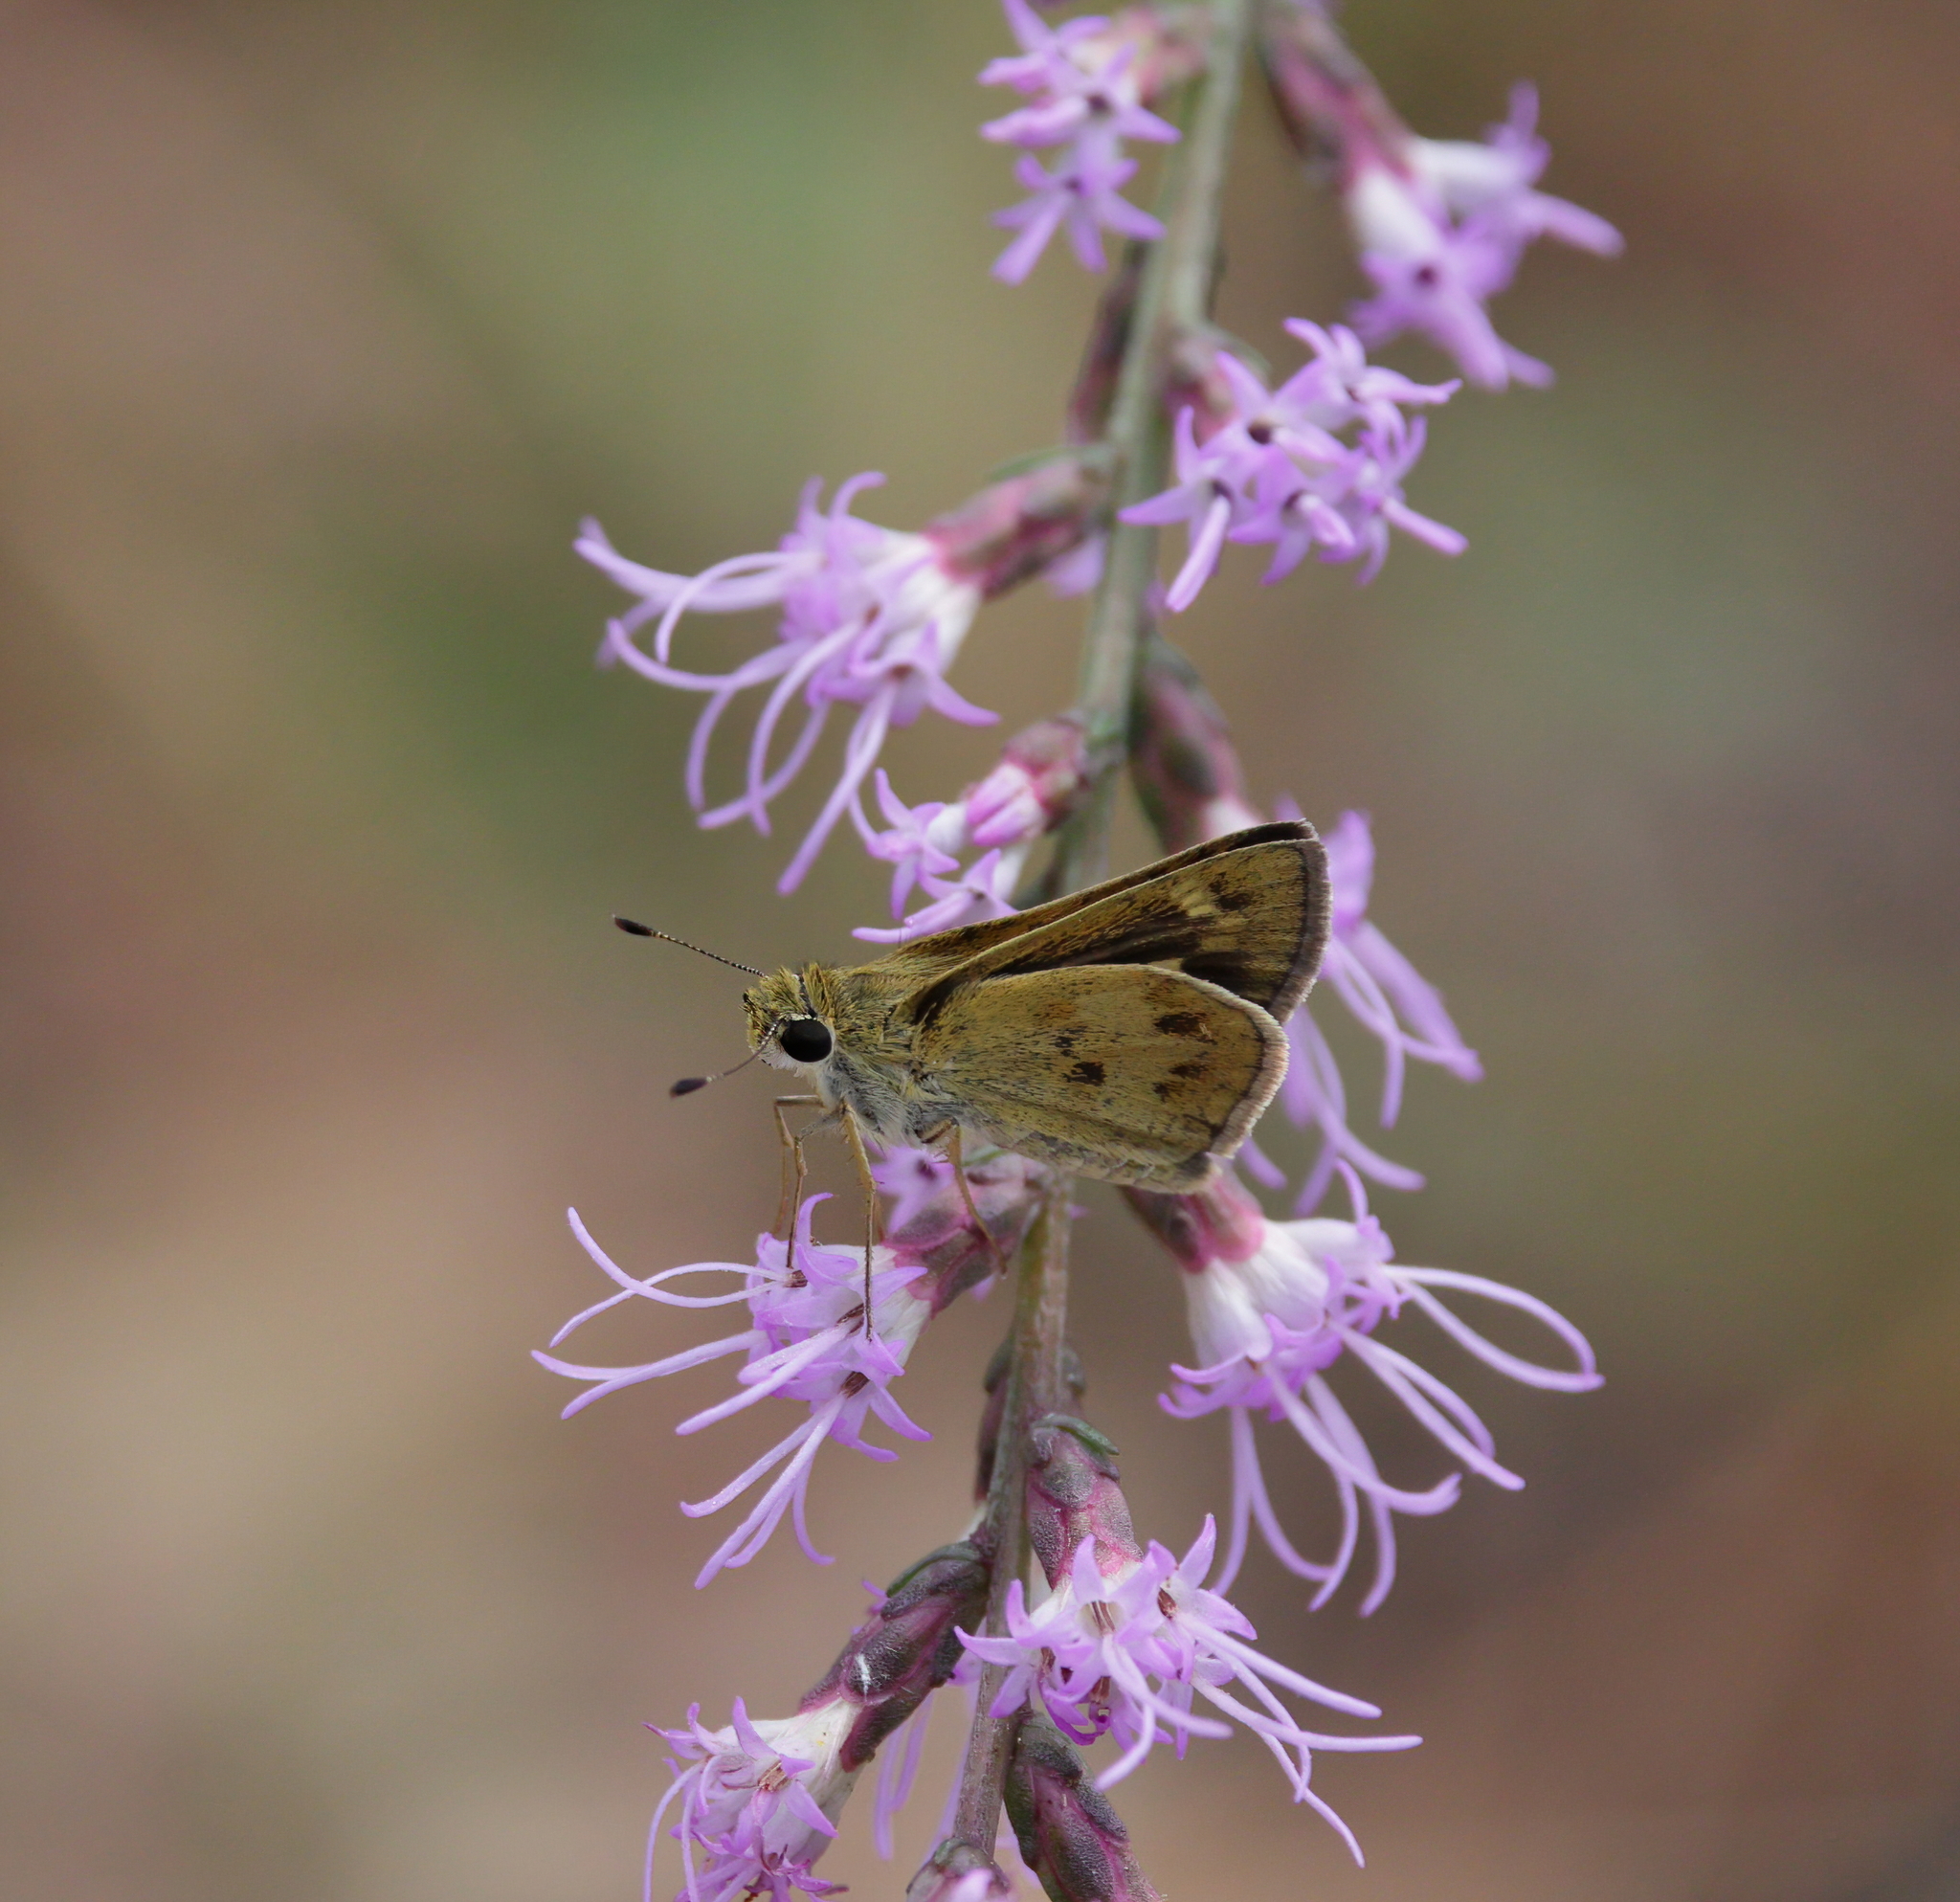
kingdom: Animalia
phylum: Arthropoda
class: Insecta
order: Lepidoptera
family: Hesperiidae
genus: Polites
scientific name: Polites vibex
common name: Whirlabout
